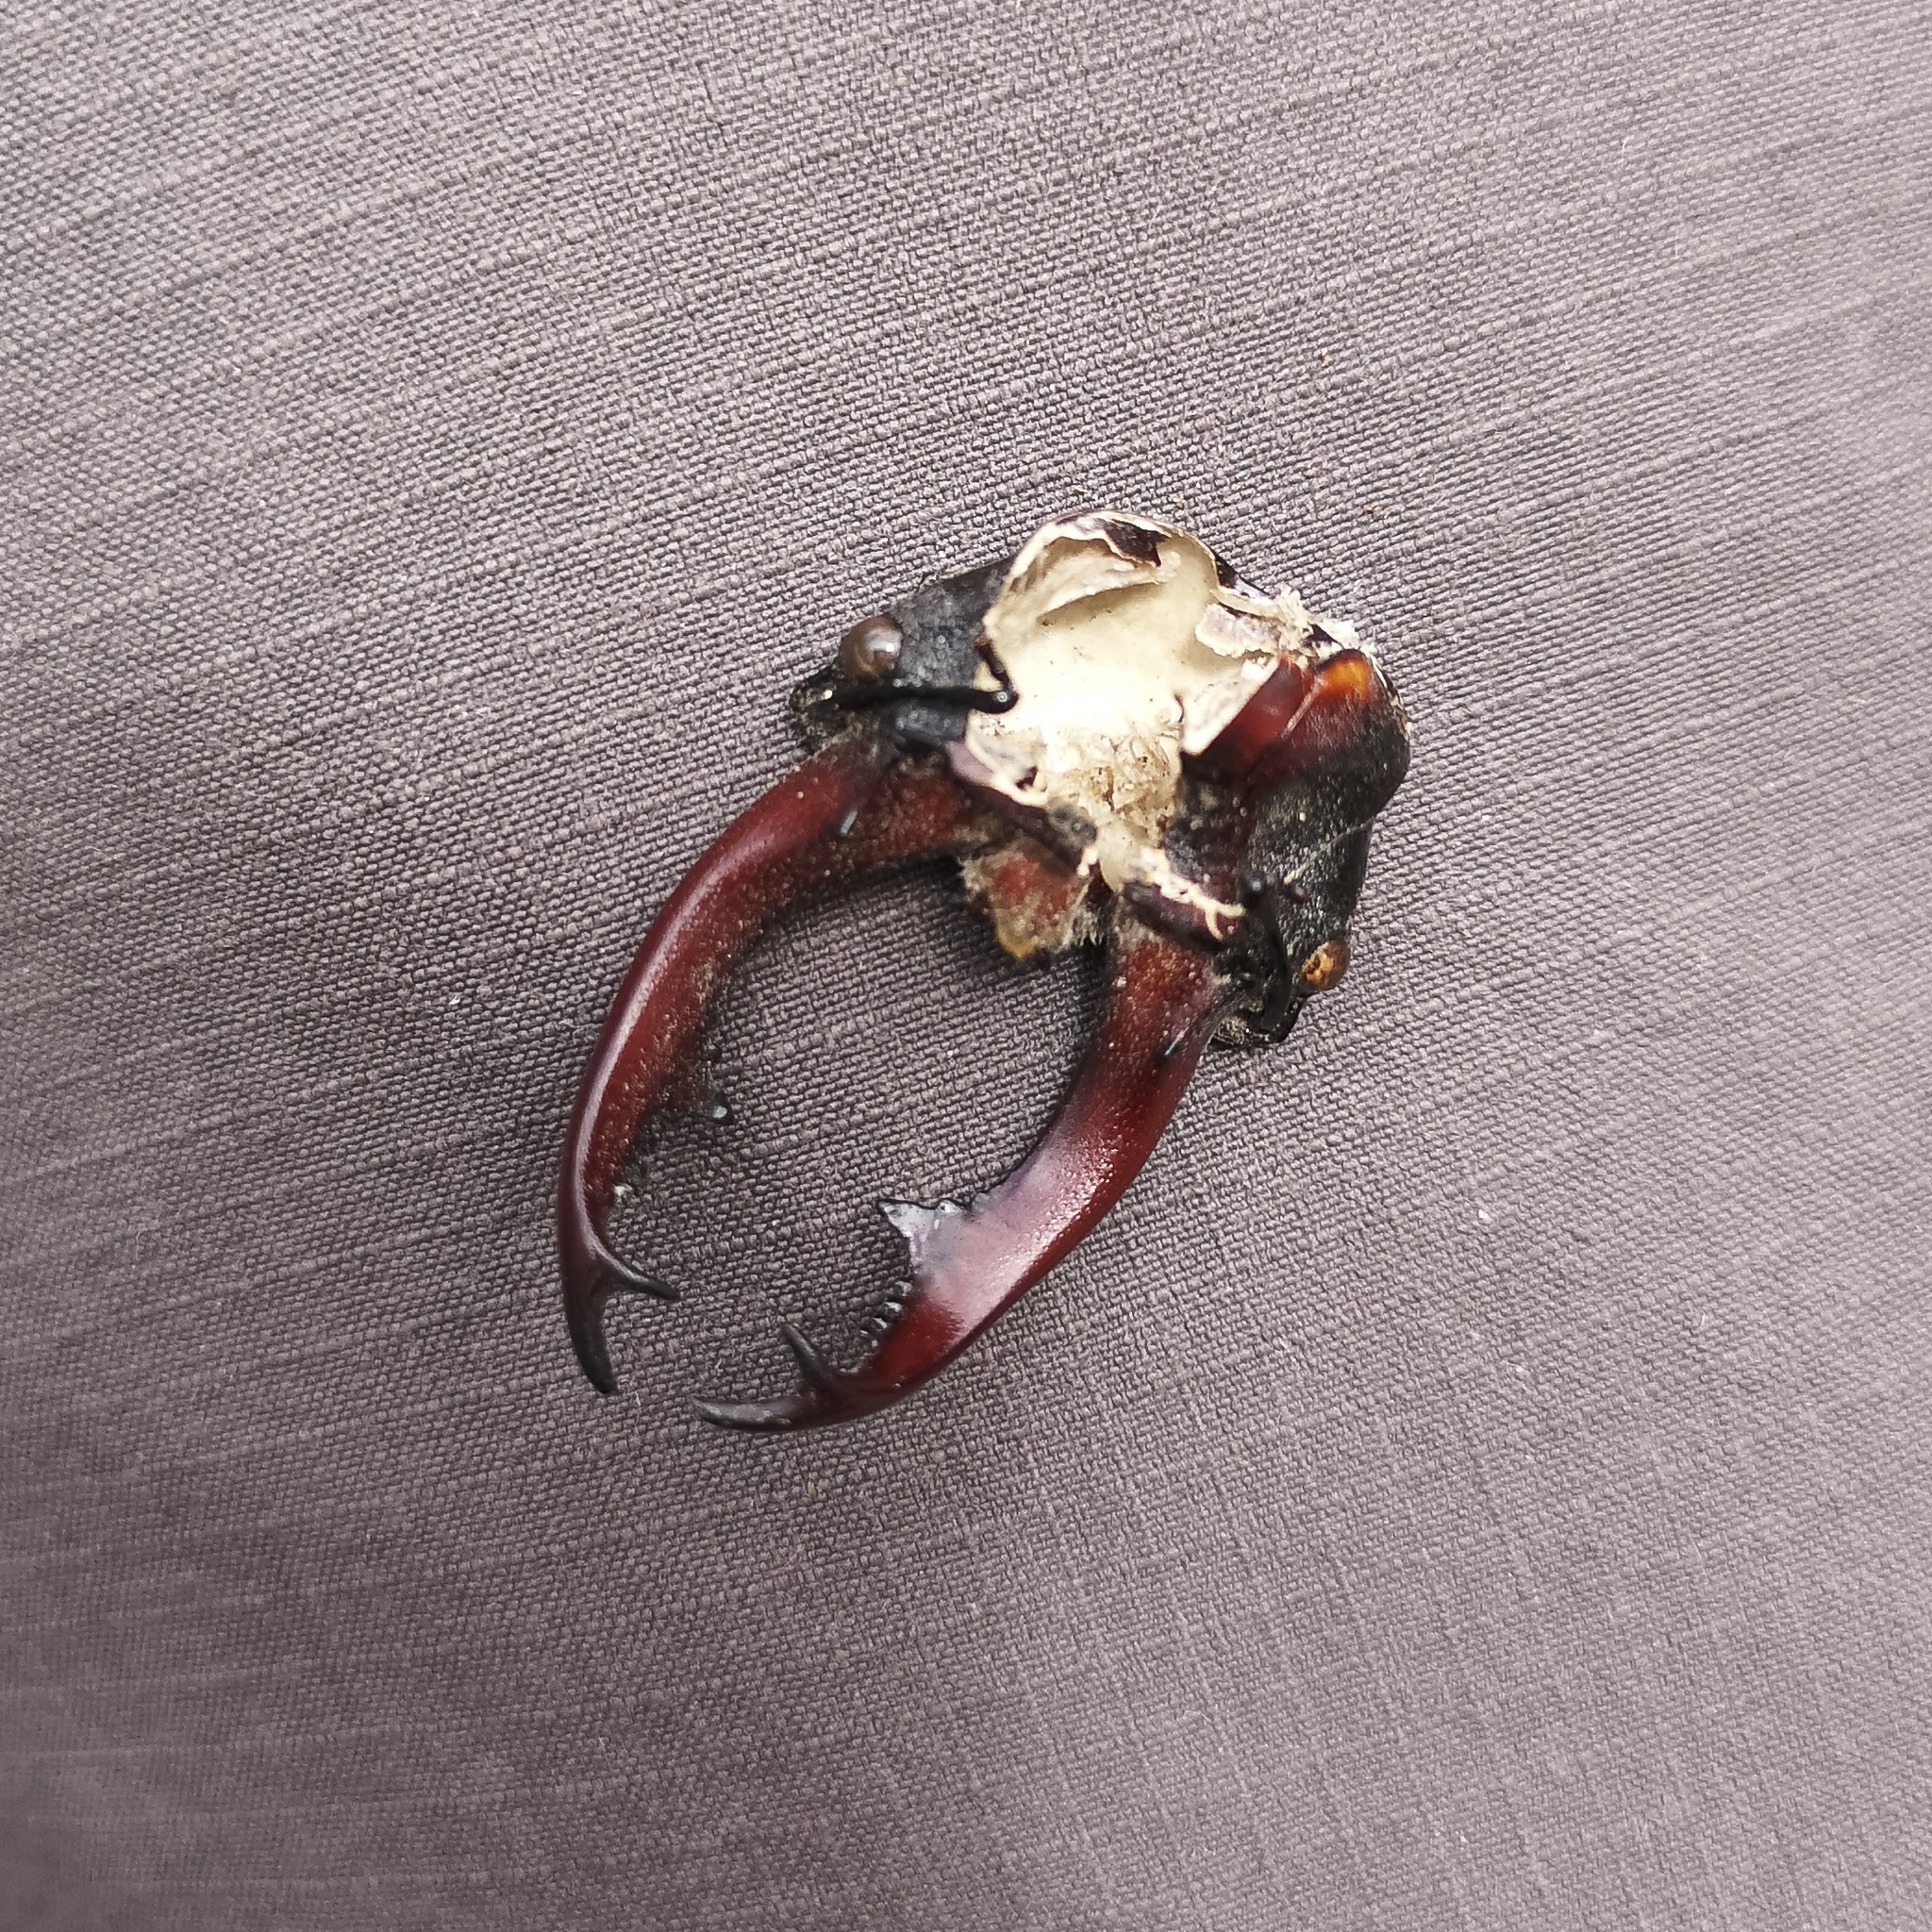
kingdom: Animalia
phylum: Arthropoda
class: Insecta
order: Coleoptera
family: Lucanidae
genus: Lucanus
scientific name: Lucanus cervus
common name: Stag beetle
